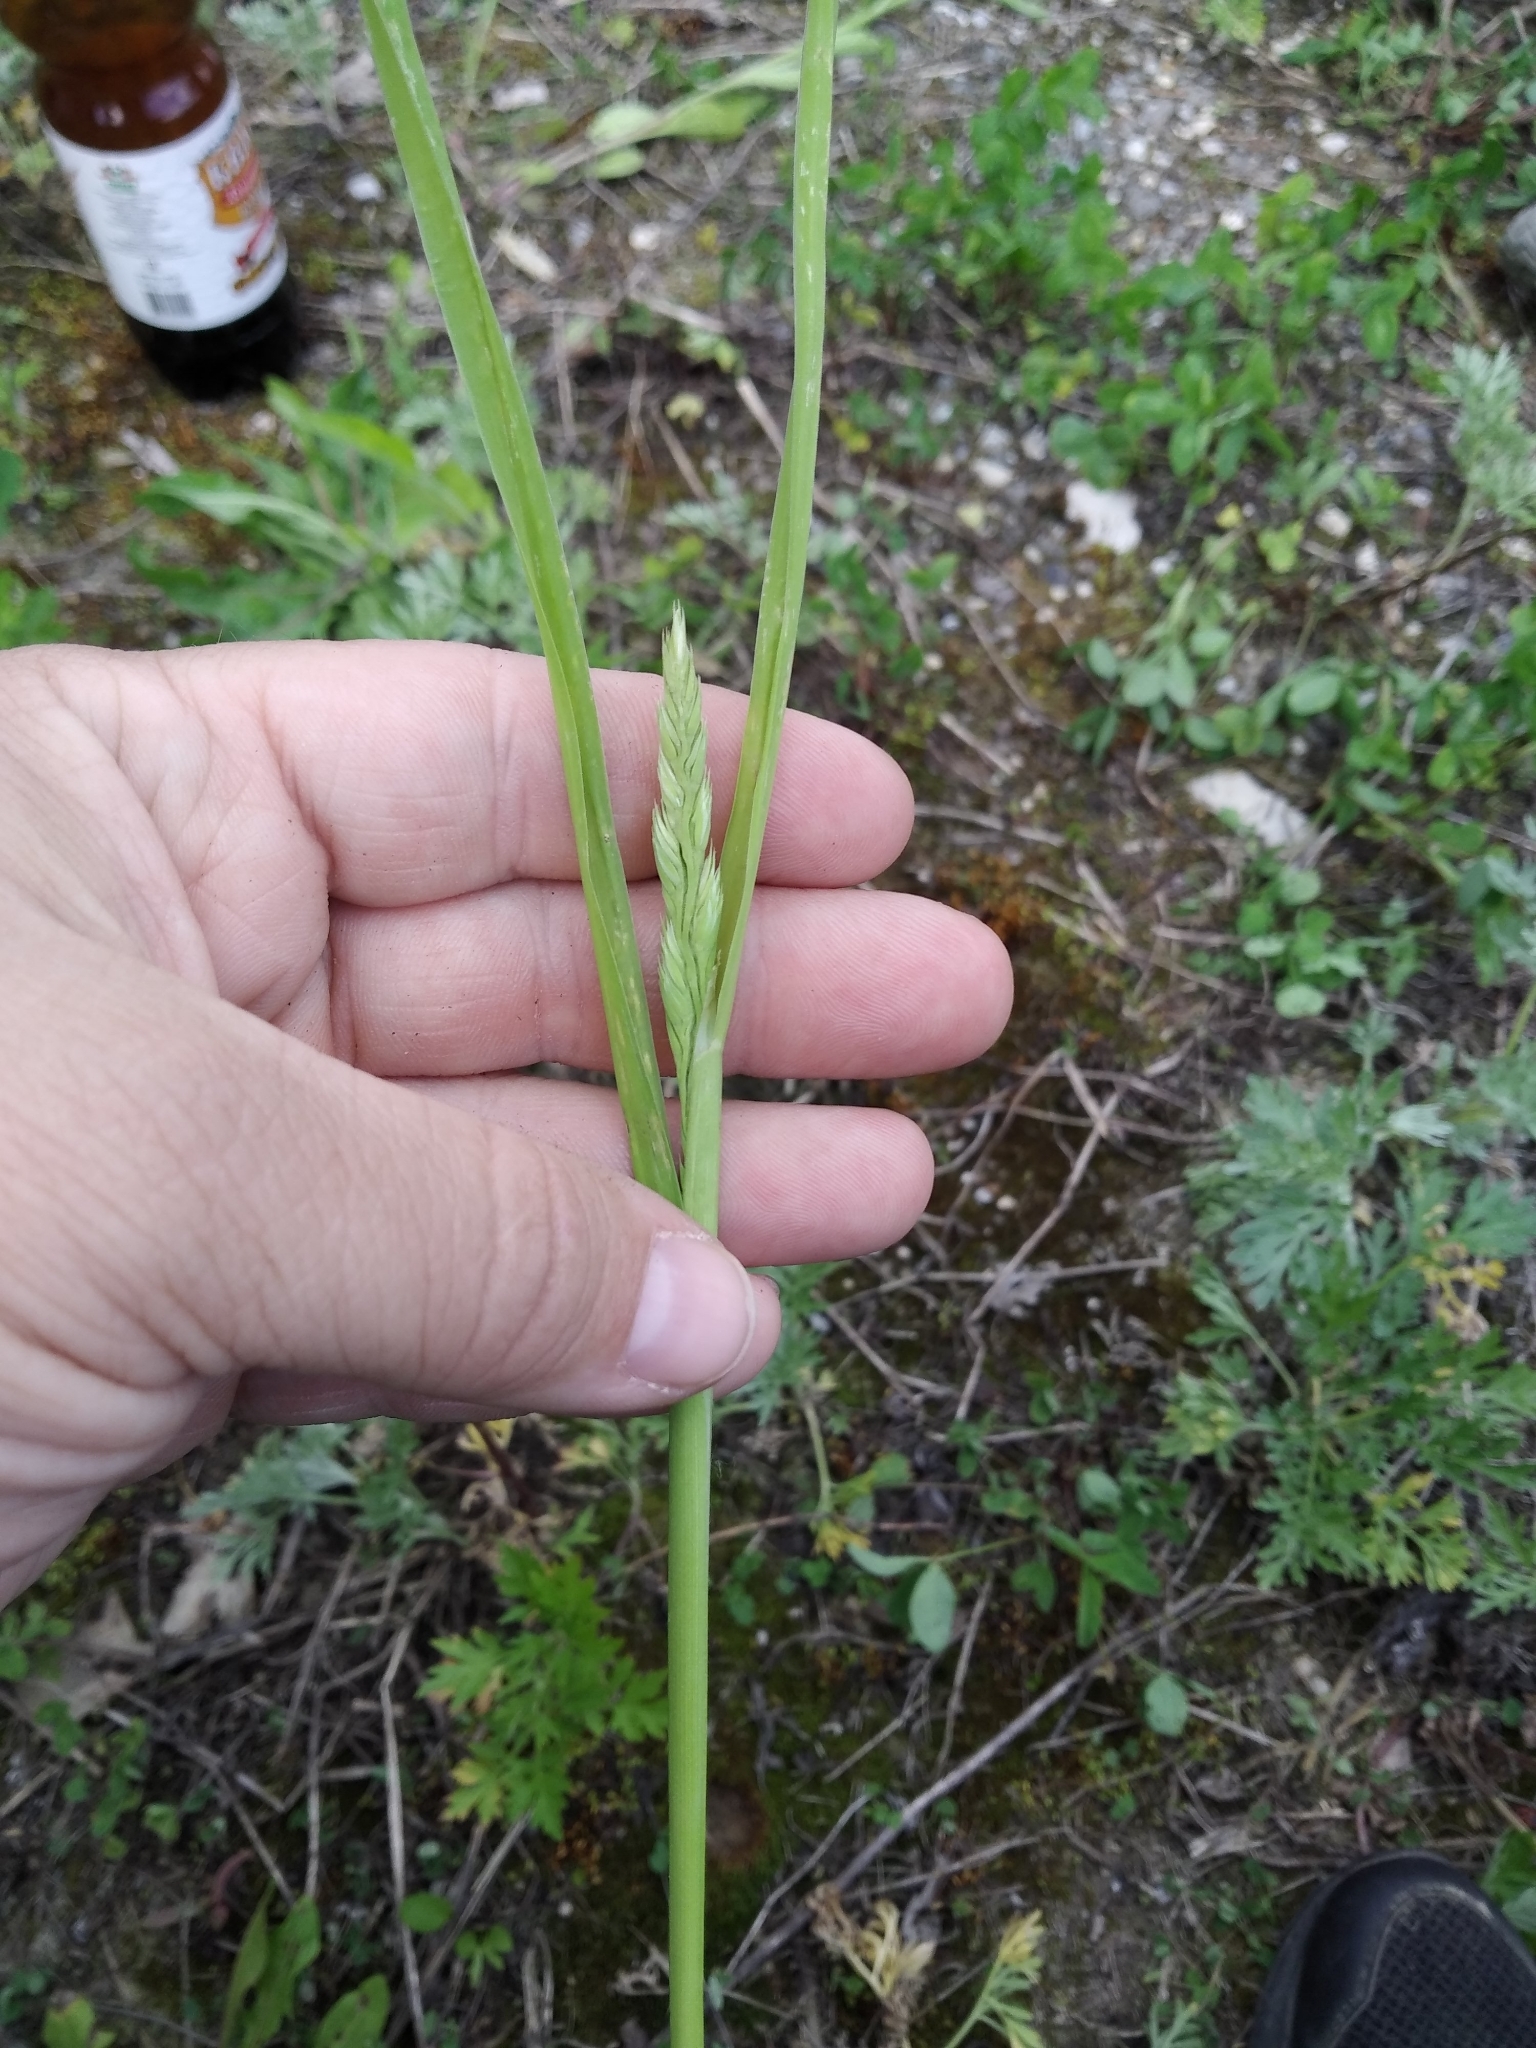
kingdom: Plantae
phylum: Tracheophyta
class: Liliopsida
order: Poales
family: Poaceae
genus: Dactylis
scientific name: Dactylis glomerata
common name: Orchardgrass
